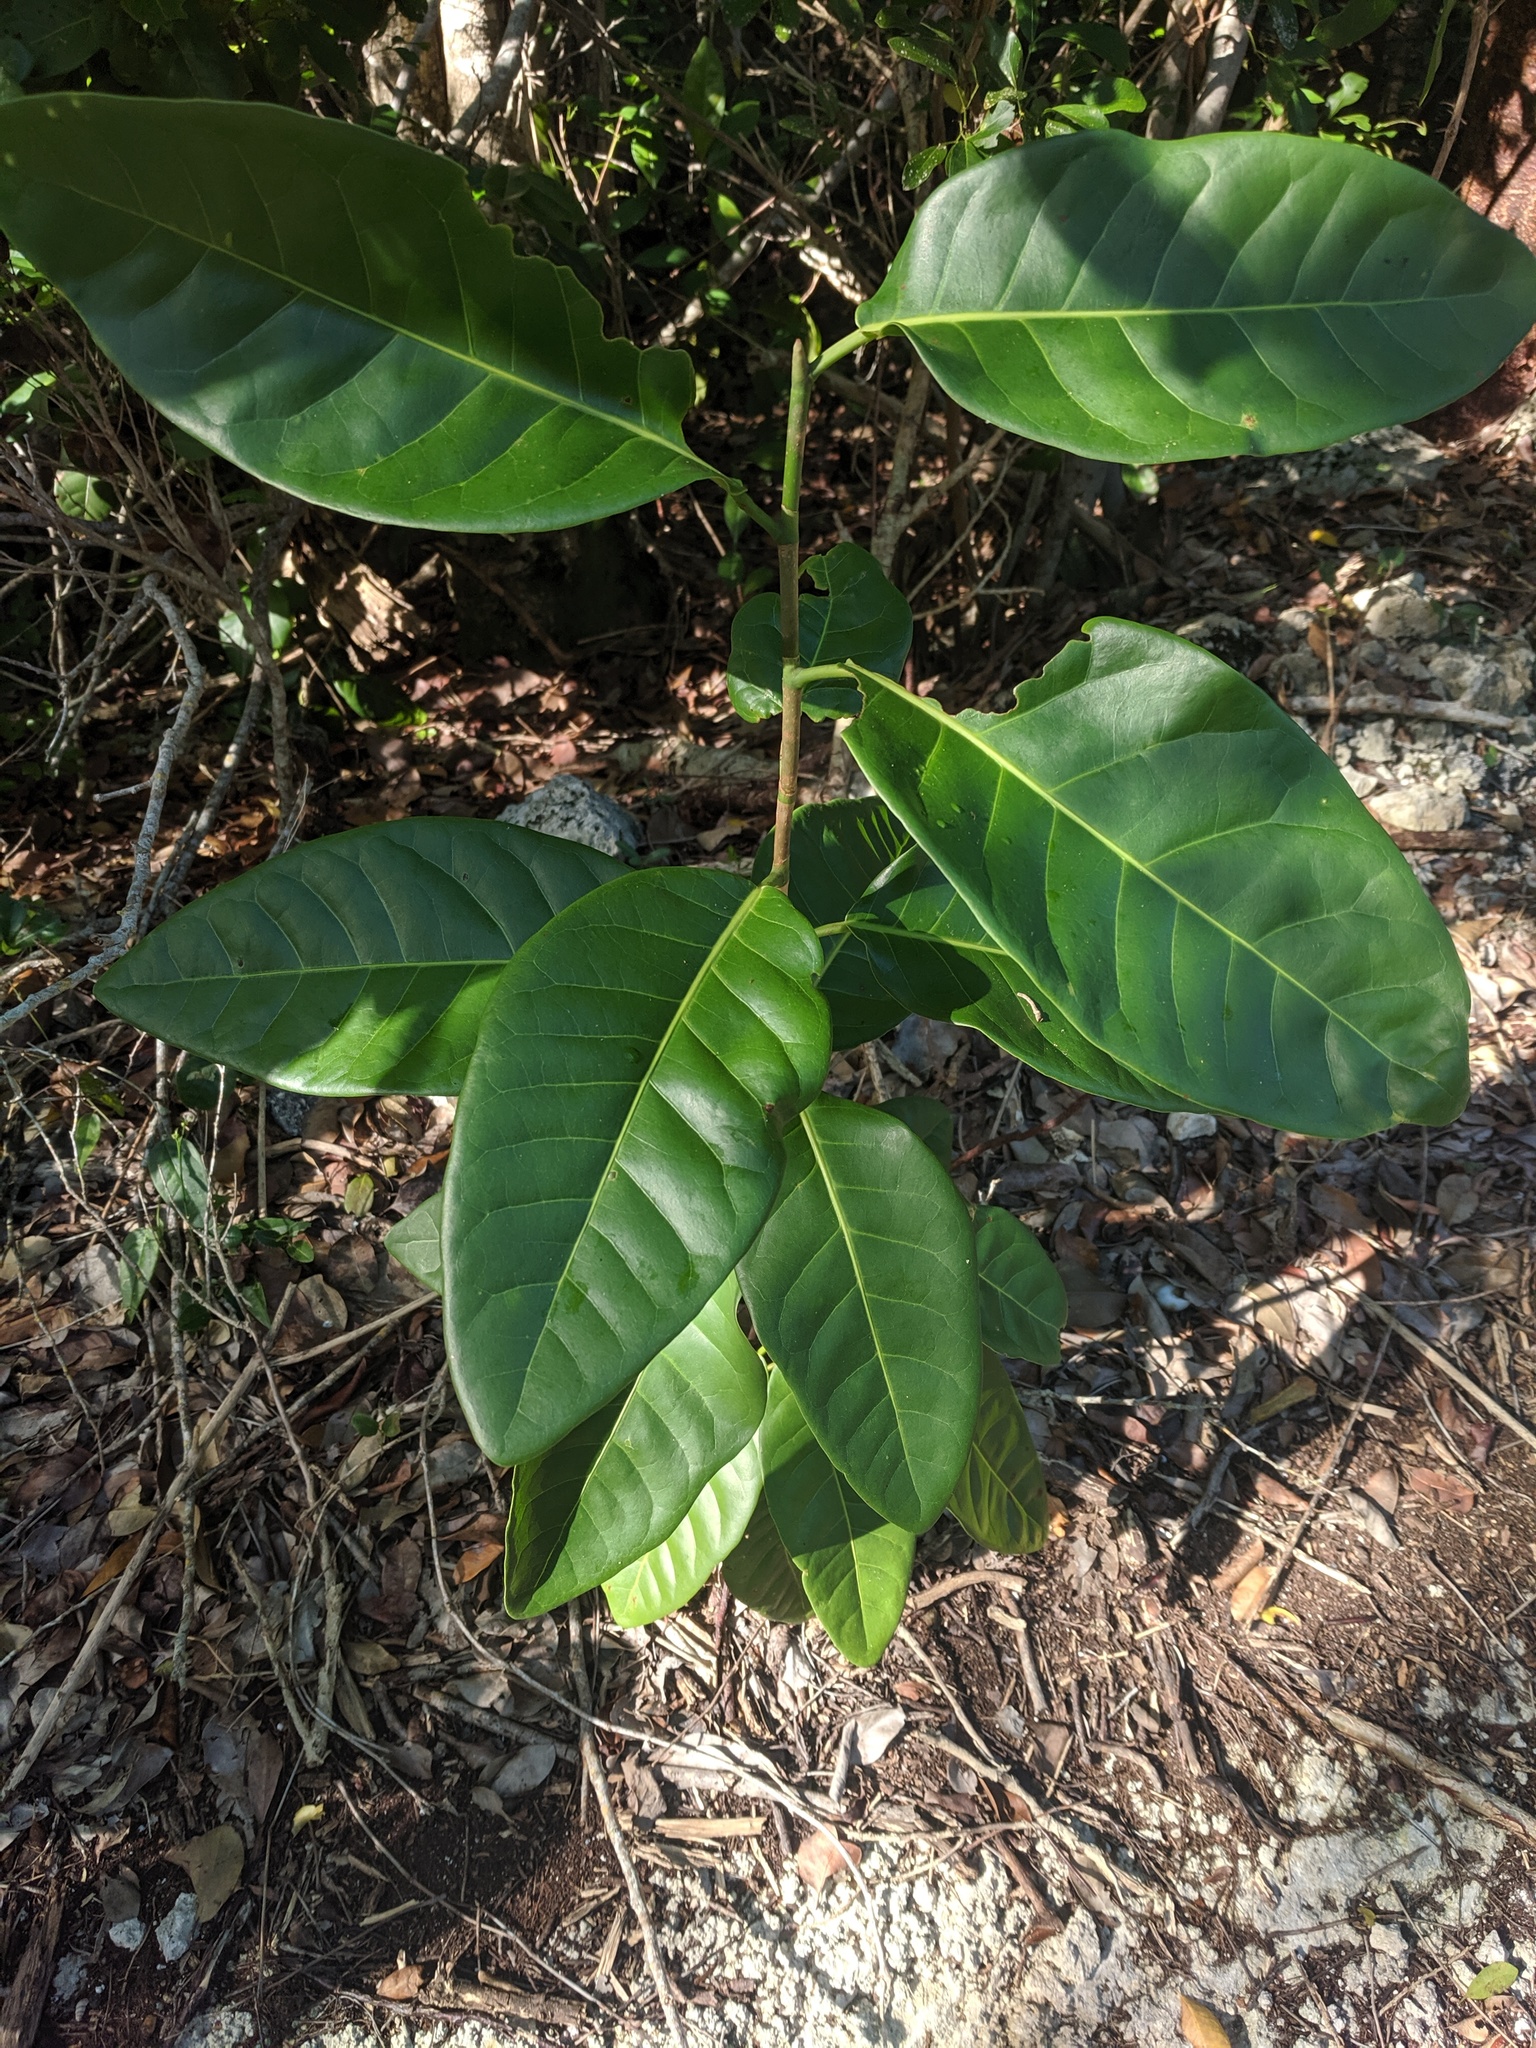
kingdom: Plantae
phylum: Tracheophyta
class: Magnoliopsida
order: Caryophyllales
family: Polygonaceae
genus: Coccoloba
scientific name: Coccoloba diversifolia
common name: Pigeon-plum
